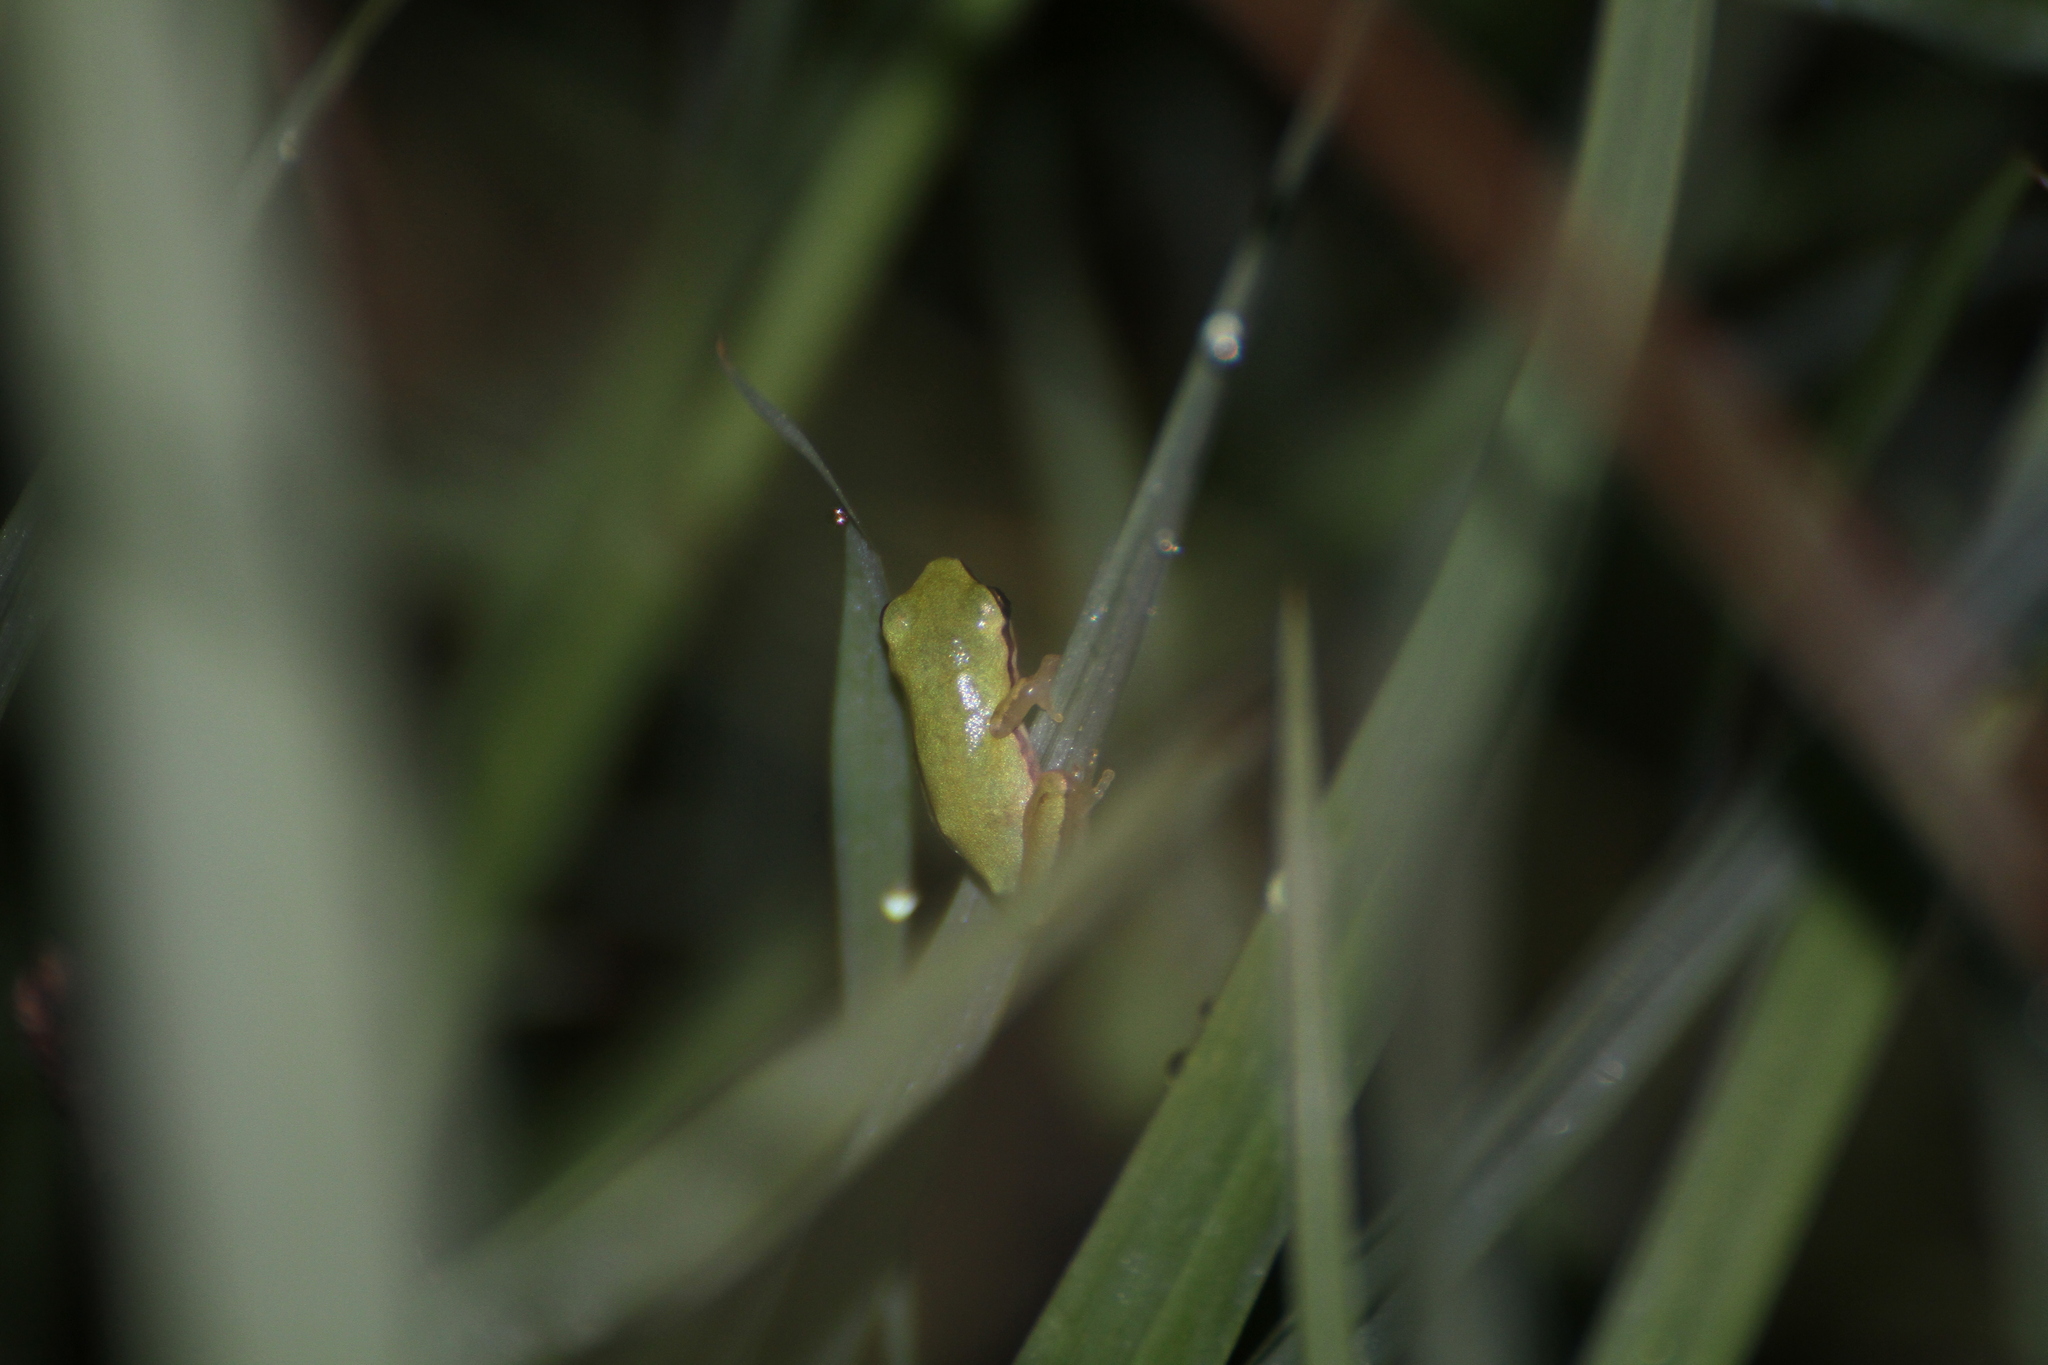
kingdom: Animalia
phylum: Chordata
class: Amphibia
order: Anura
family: Hylidae
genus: Hyla
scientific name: Hyla meridionalis
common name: Stripeless tree frog
